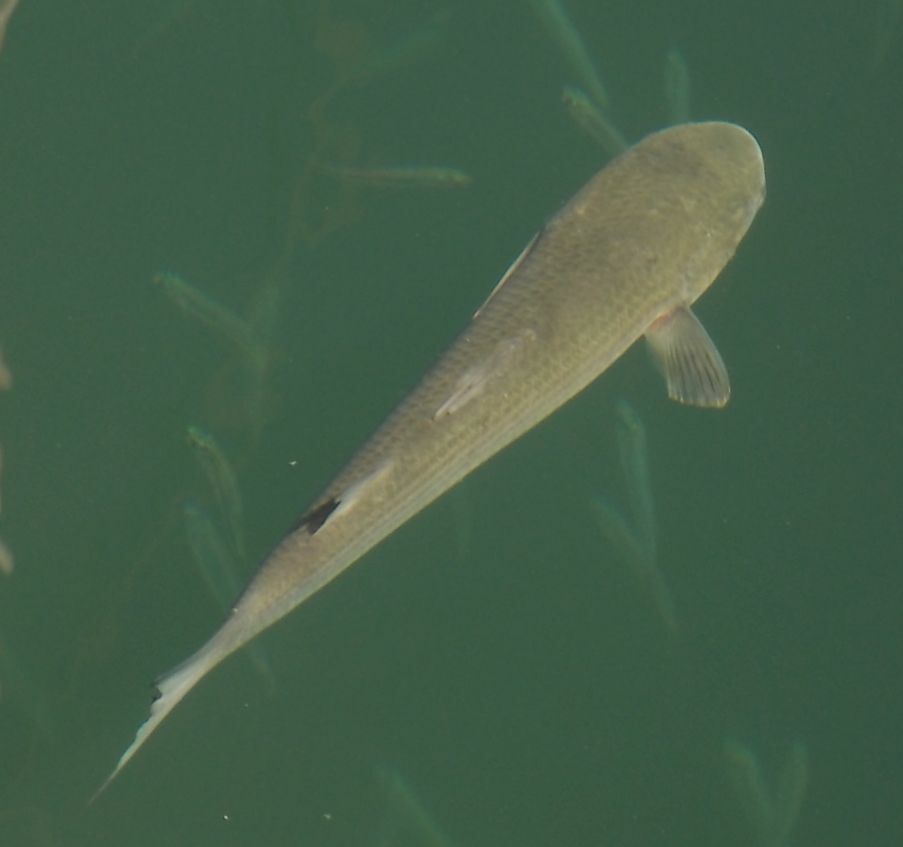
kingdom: Animalia
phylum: Chordata
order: Mugiliformes
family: Mugilidae
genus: Chelon
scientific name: Chelon labrosus
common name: Thick-lipped mullet
